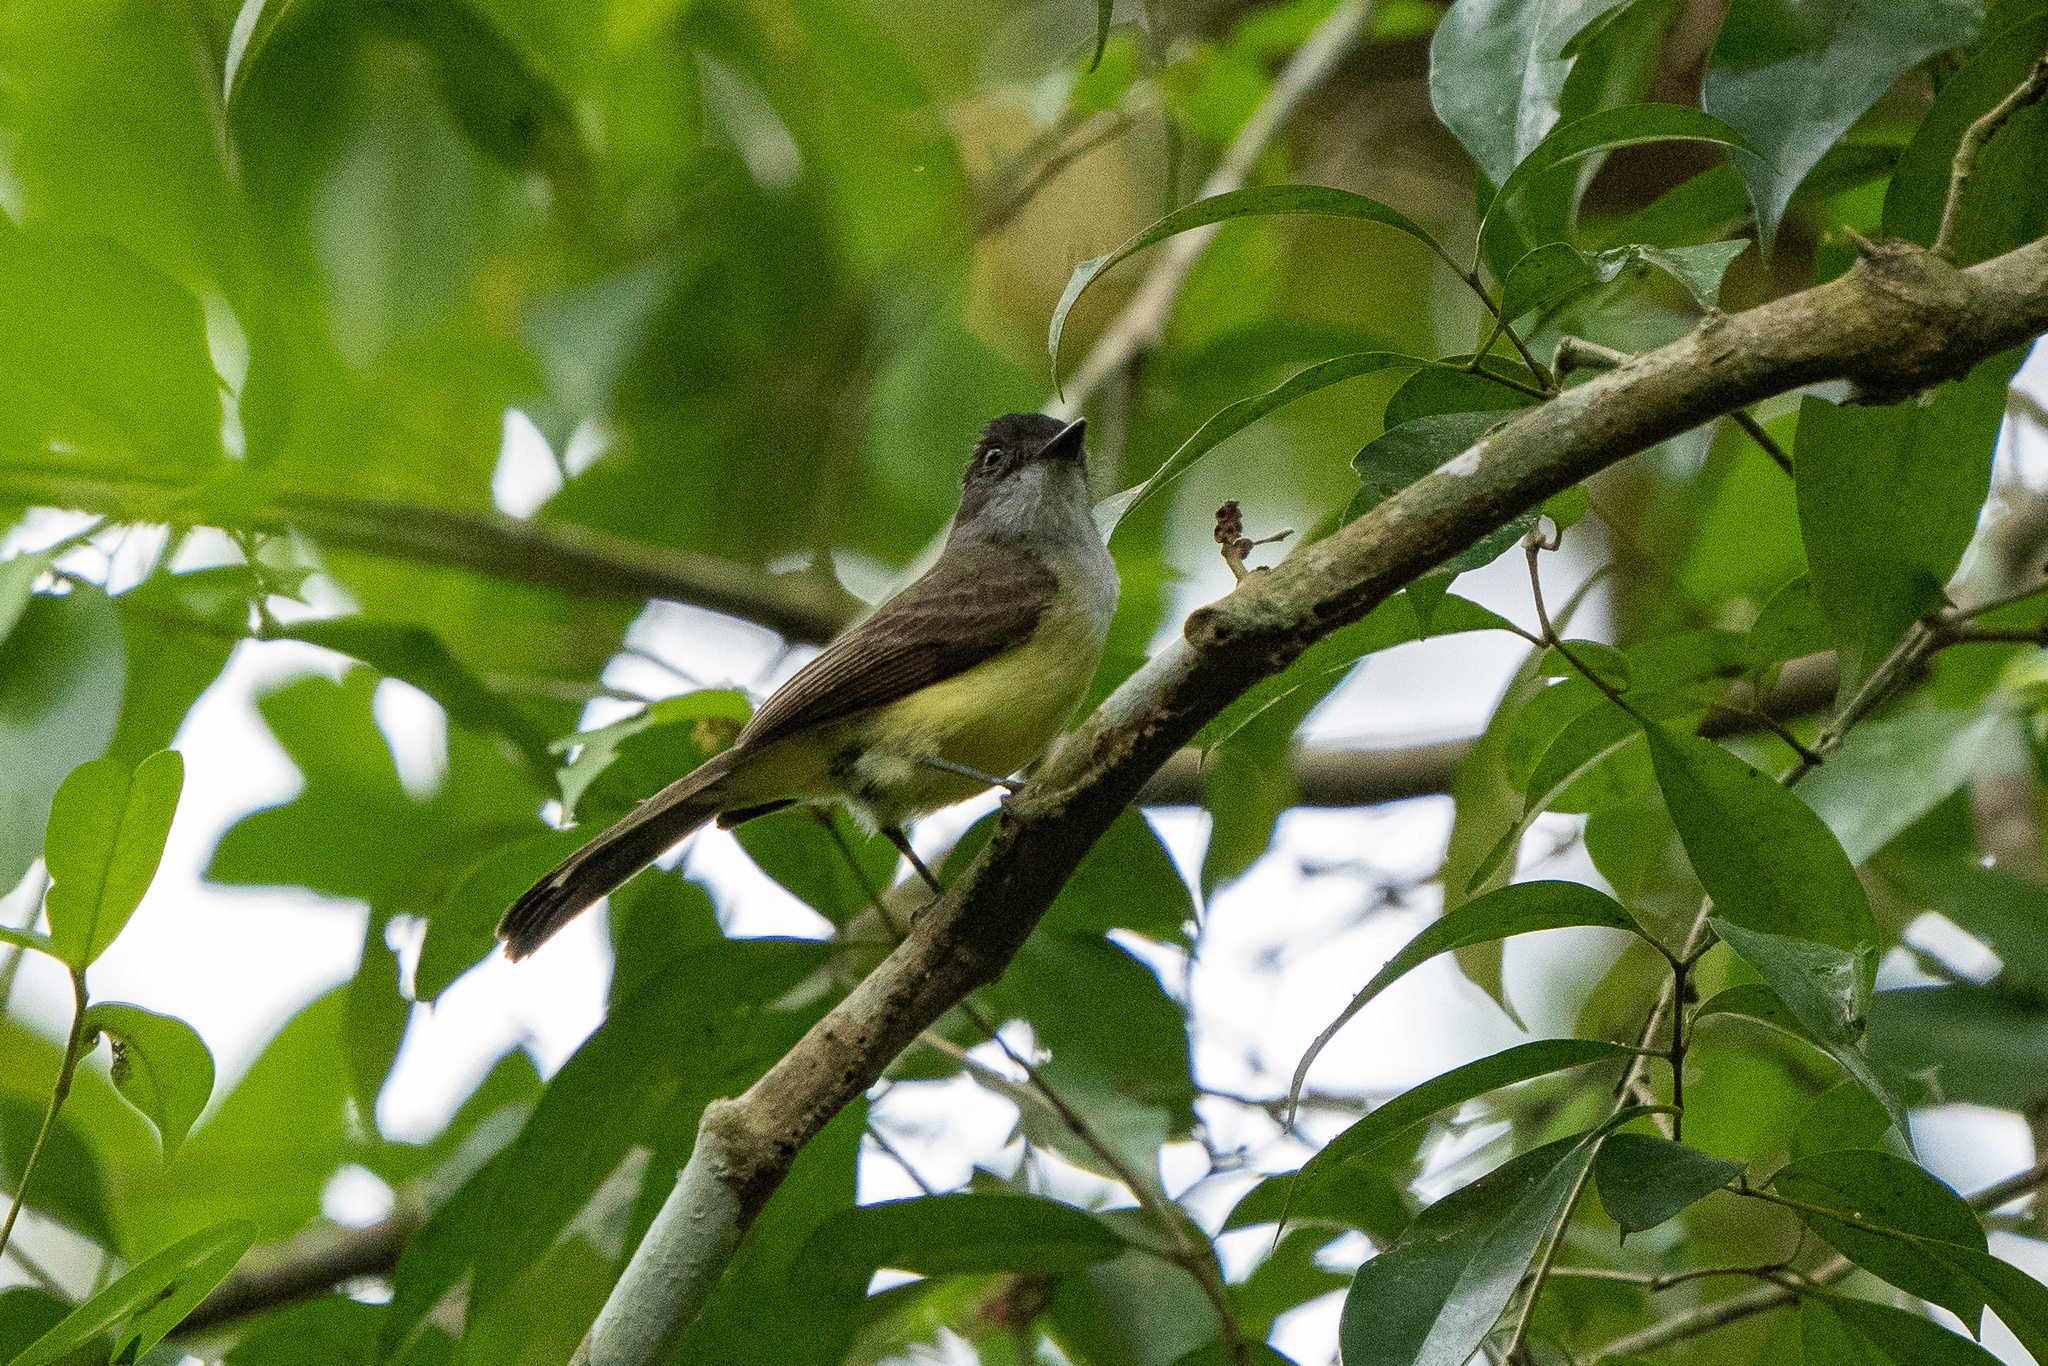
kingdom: Animalia
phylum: Chordata
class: Aves
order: Passeriformes
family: Tyrannidae
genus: Myiarchus
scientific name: Myiarchus tuberculifer
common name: Dusky-capped flycatcher
